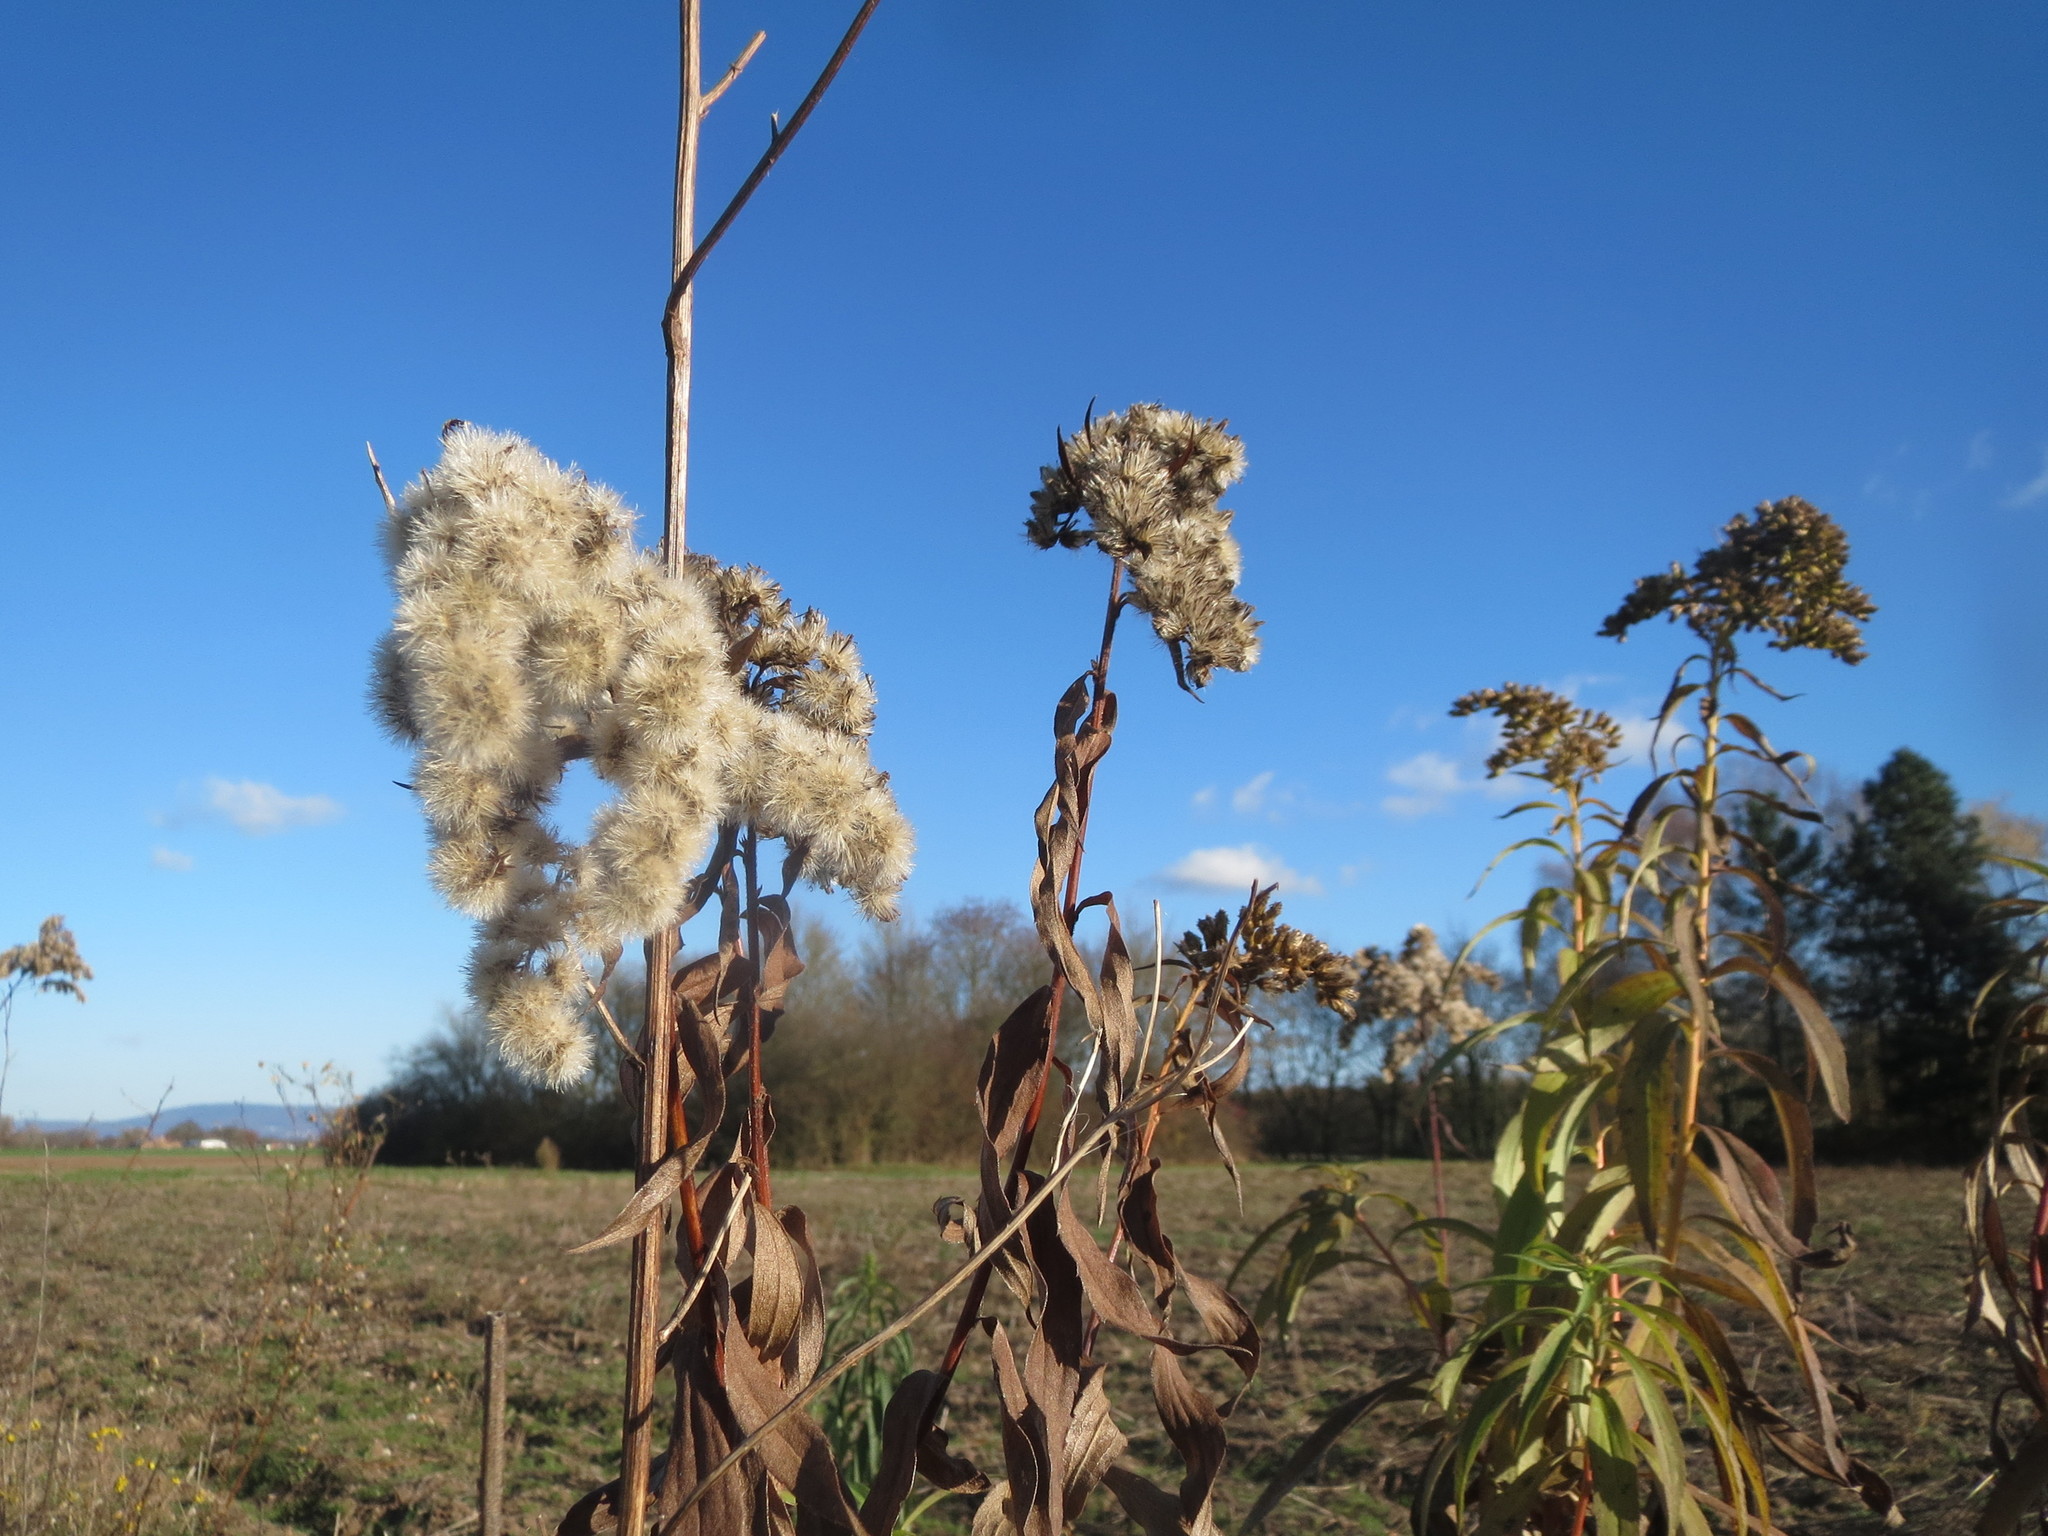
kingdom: Plantae
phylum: Tracheophyta
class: Magnoliopsida
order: Asterales
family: Asteraceae
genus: Solidago
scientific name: Solidago canadensis
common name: Canada goldenrod
